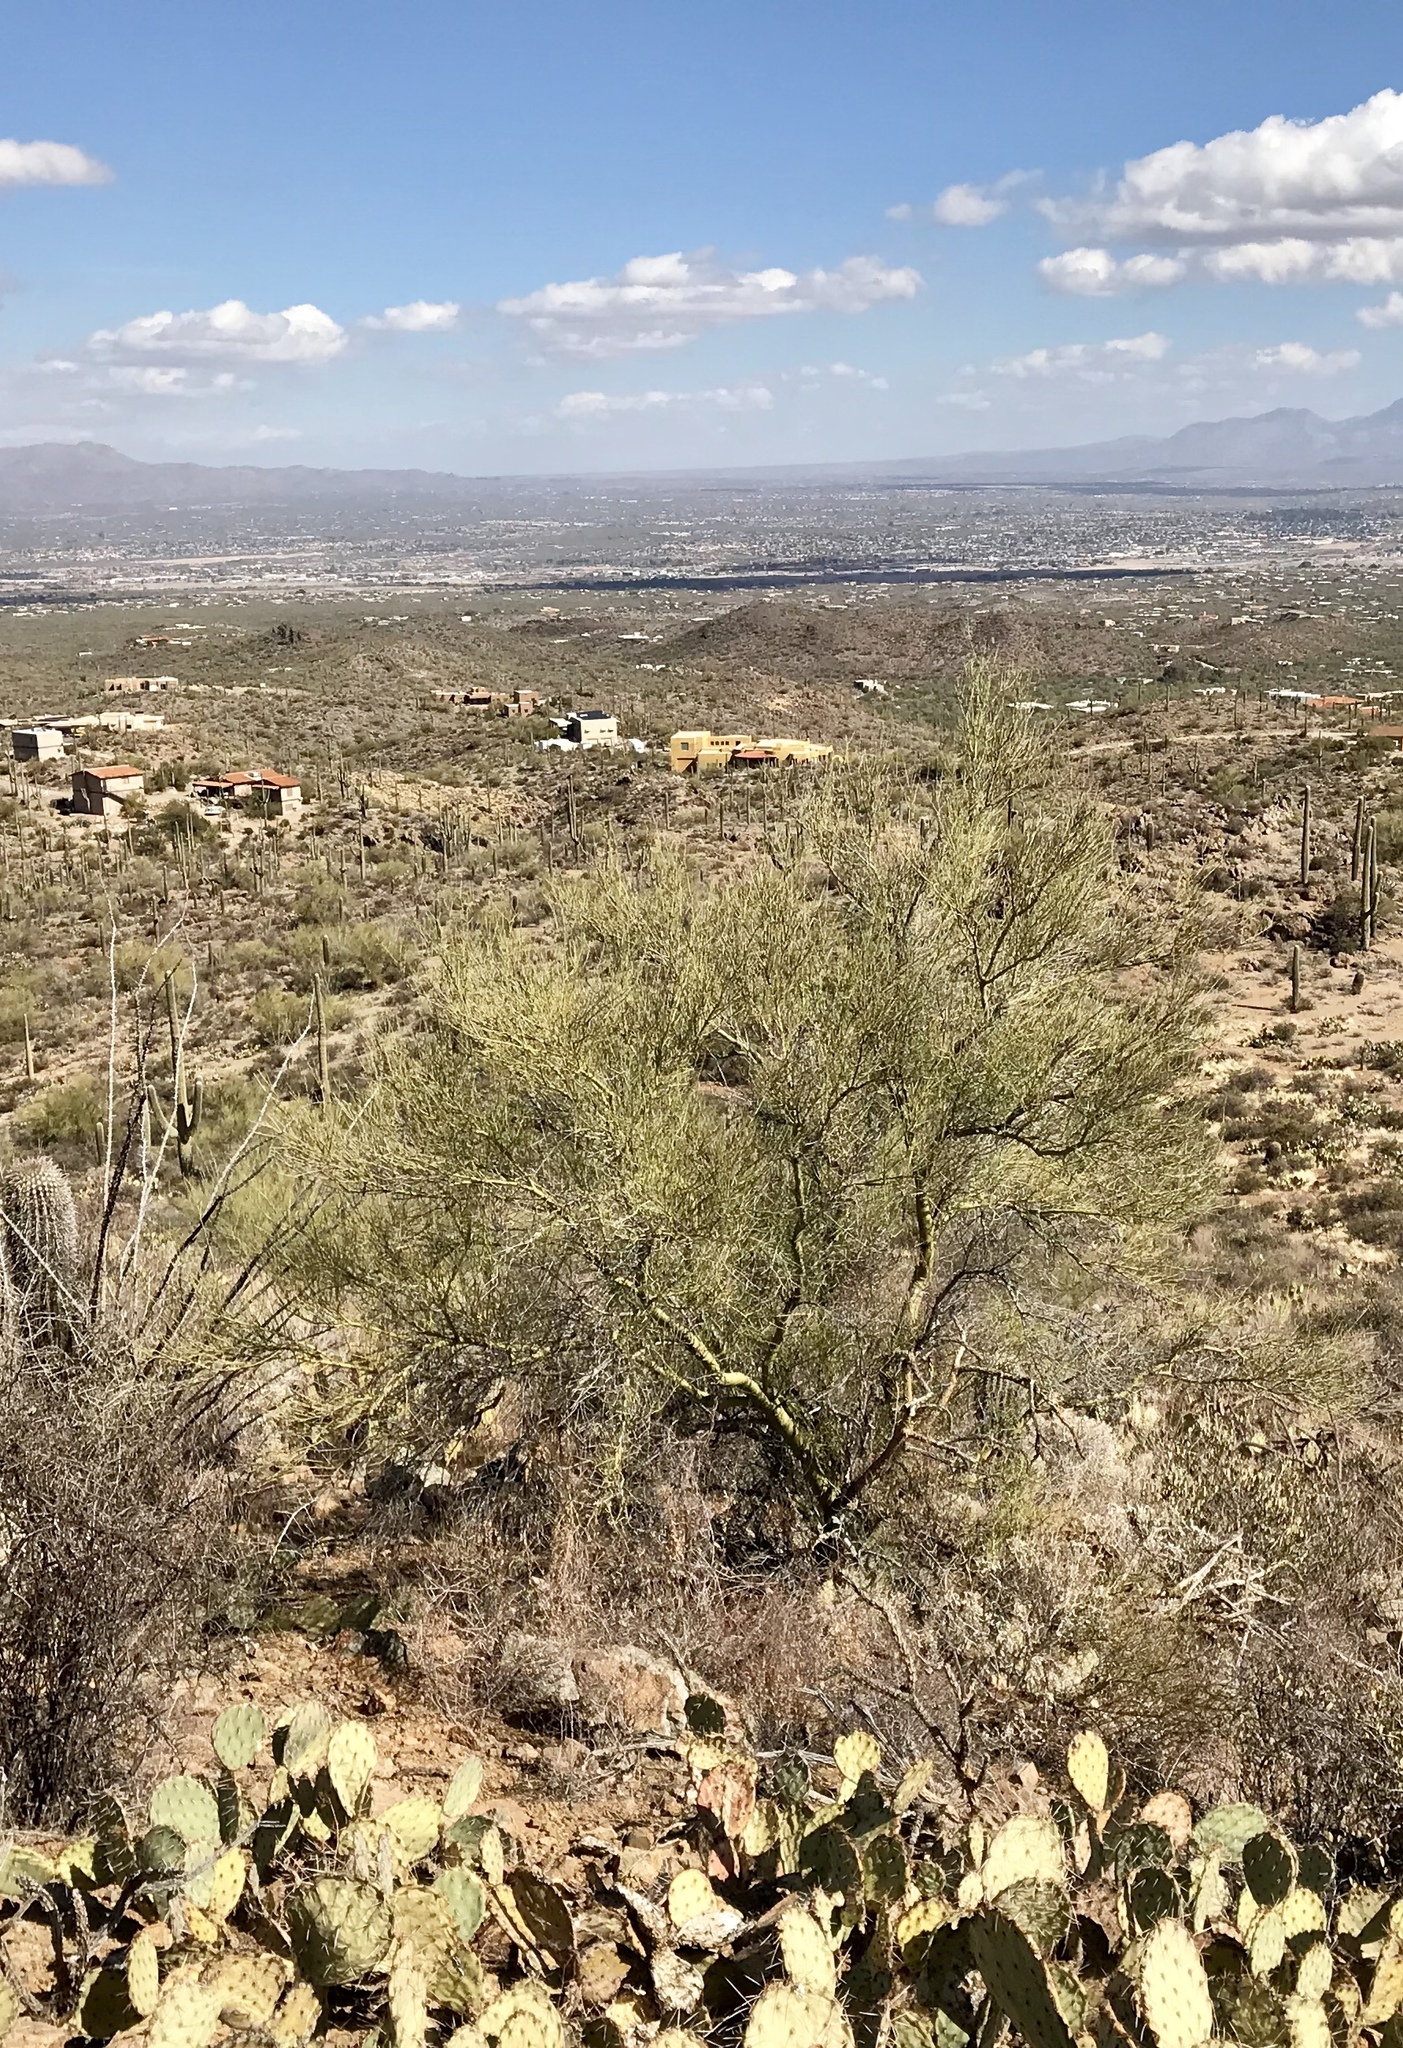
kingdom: Plantae
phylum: Tracheophyta
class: Magnoliopsida
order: Fabales
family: Fabaceae
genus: Parkinsonia
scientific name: Parkinsonia microphylla
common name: Yellow paloverde
